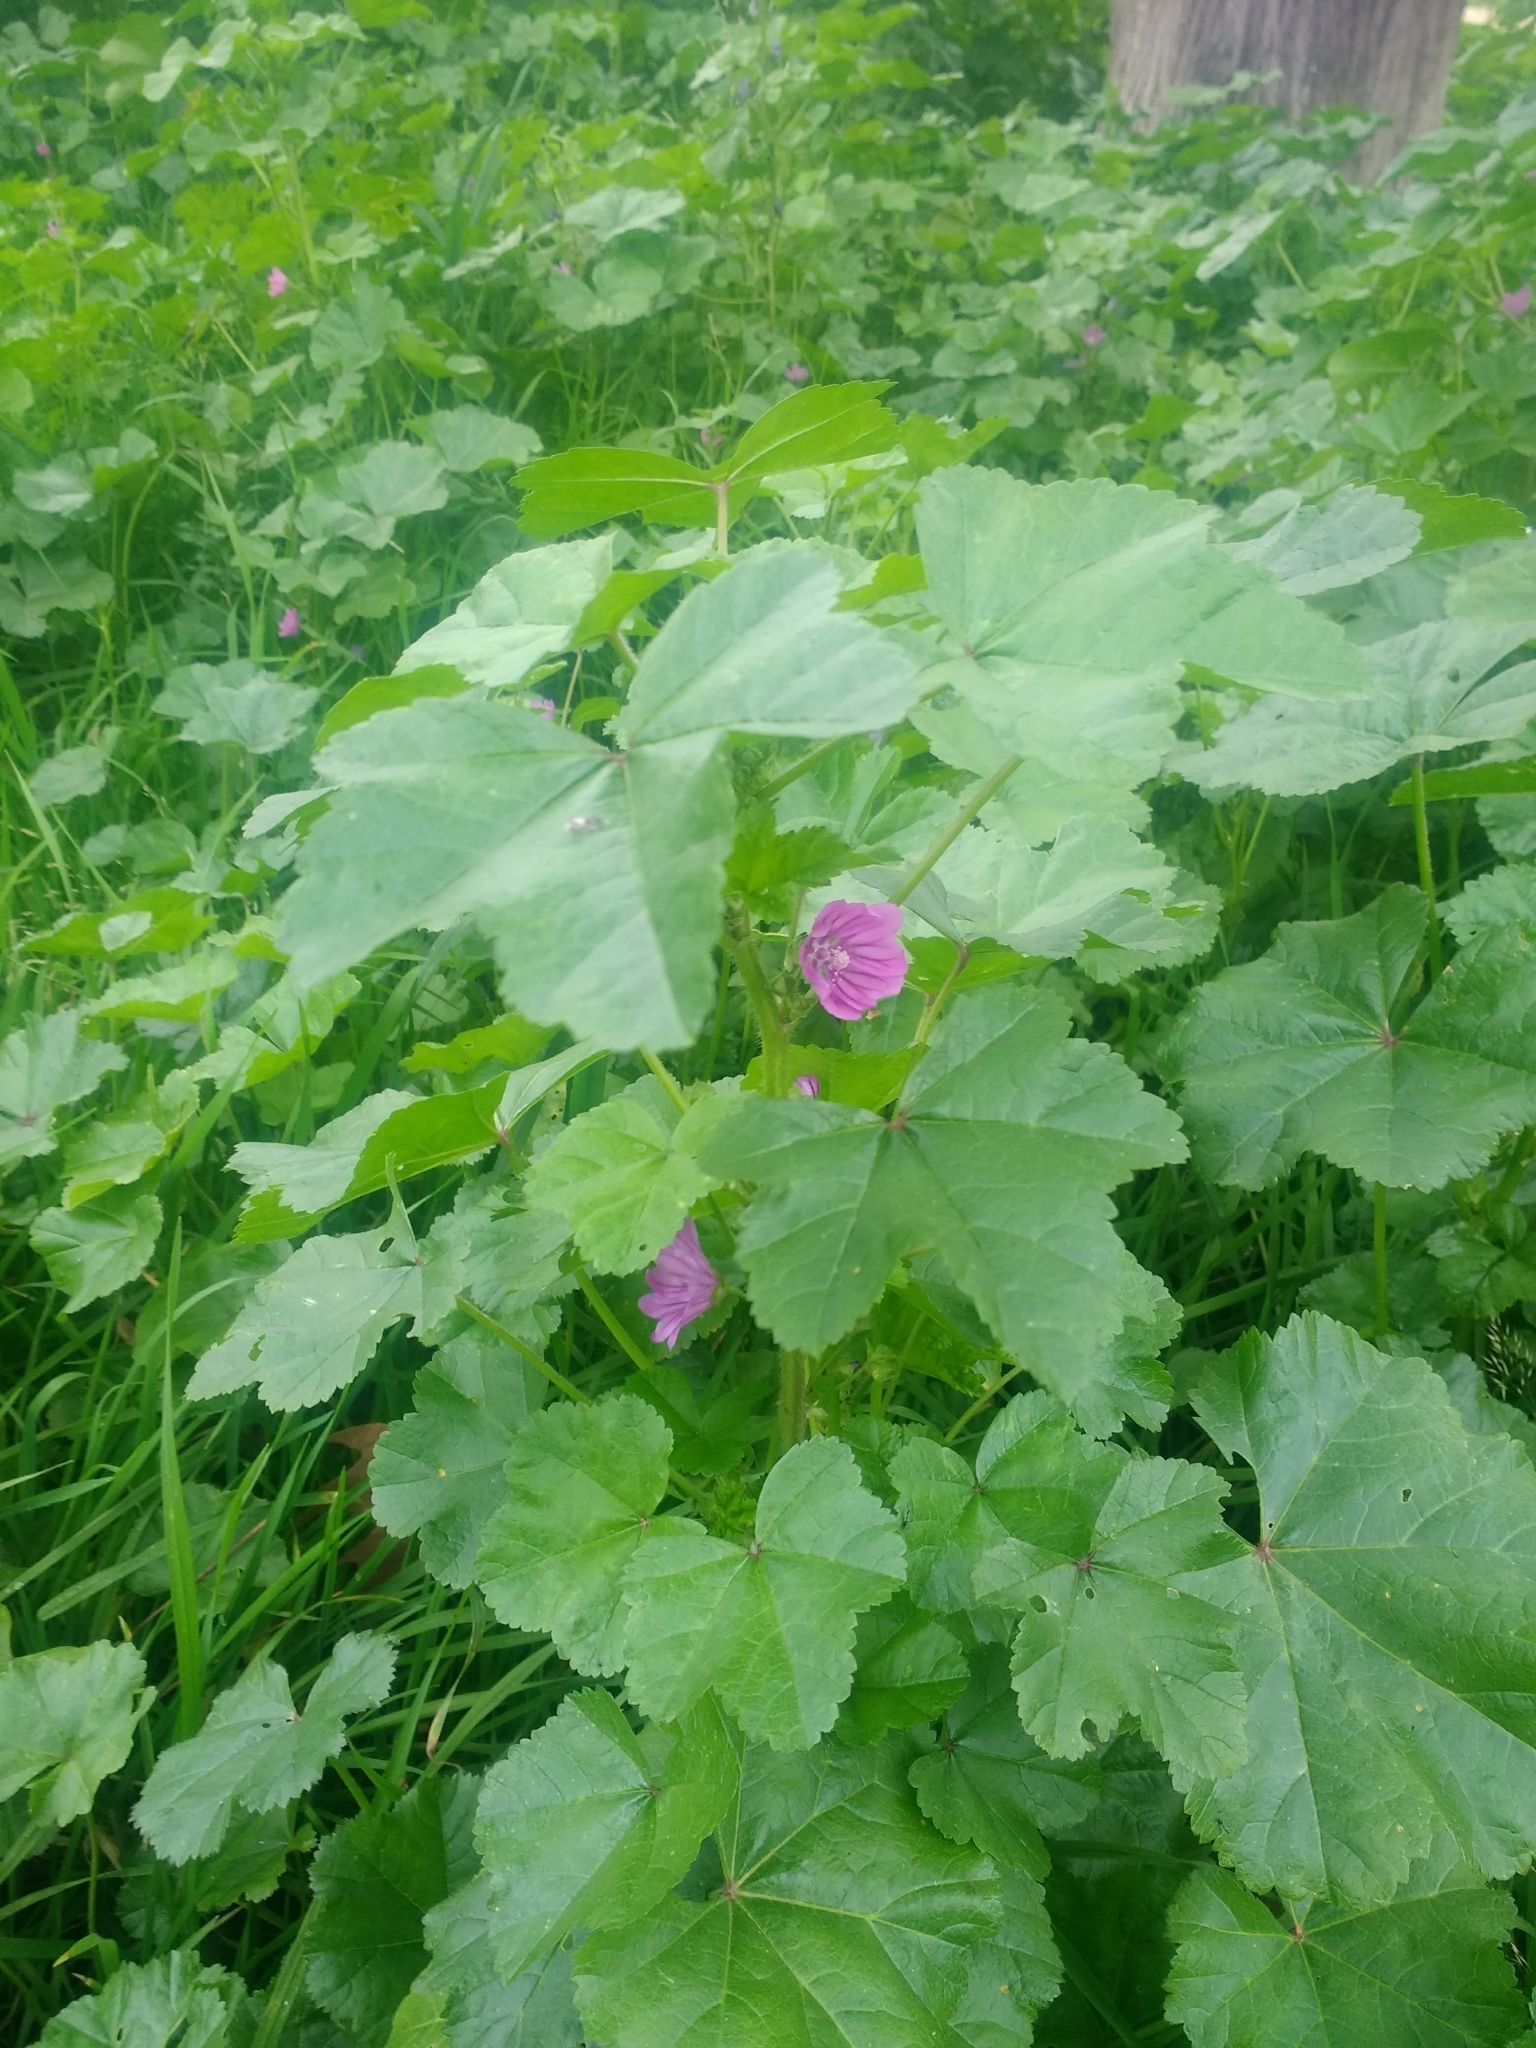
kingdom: Plantae
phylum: Tracheophyta
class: Magnoliopsida
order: Malvales
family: Malvaceae
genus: Malva
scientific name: Malva sylvestris
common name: Common mallow
